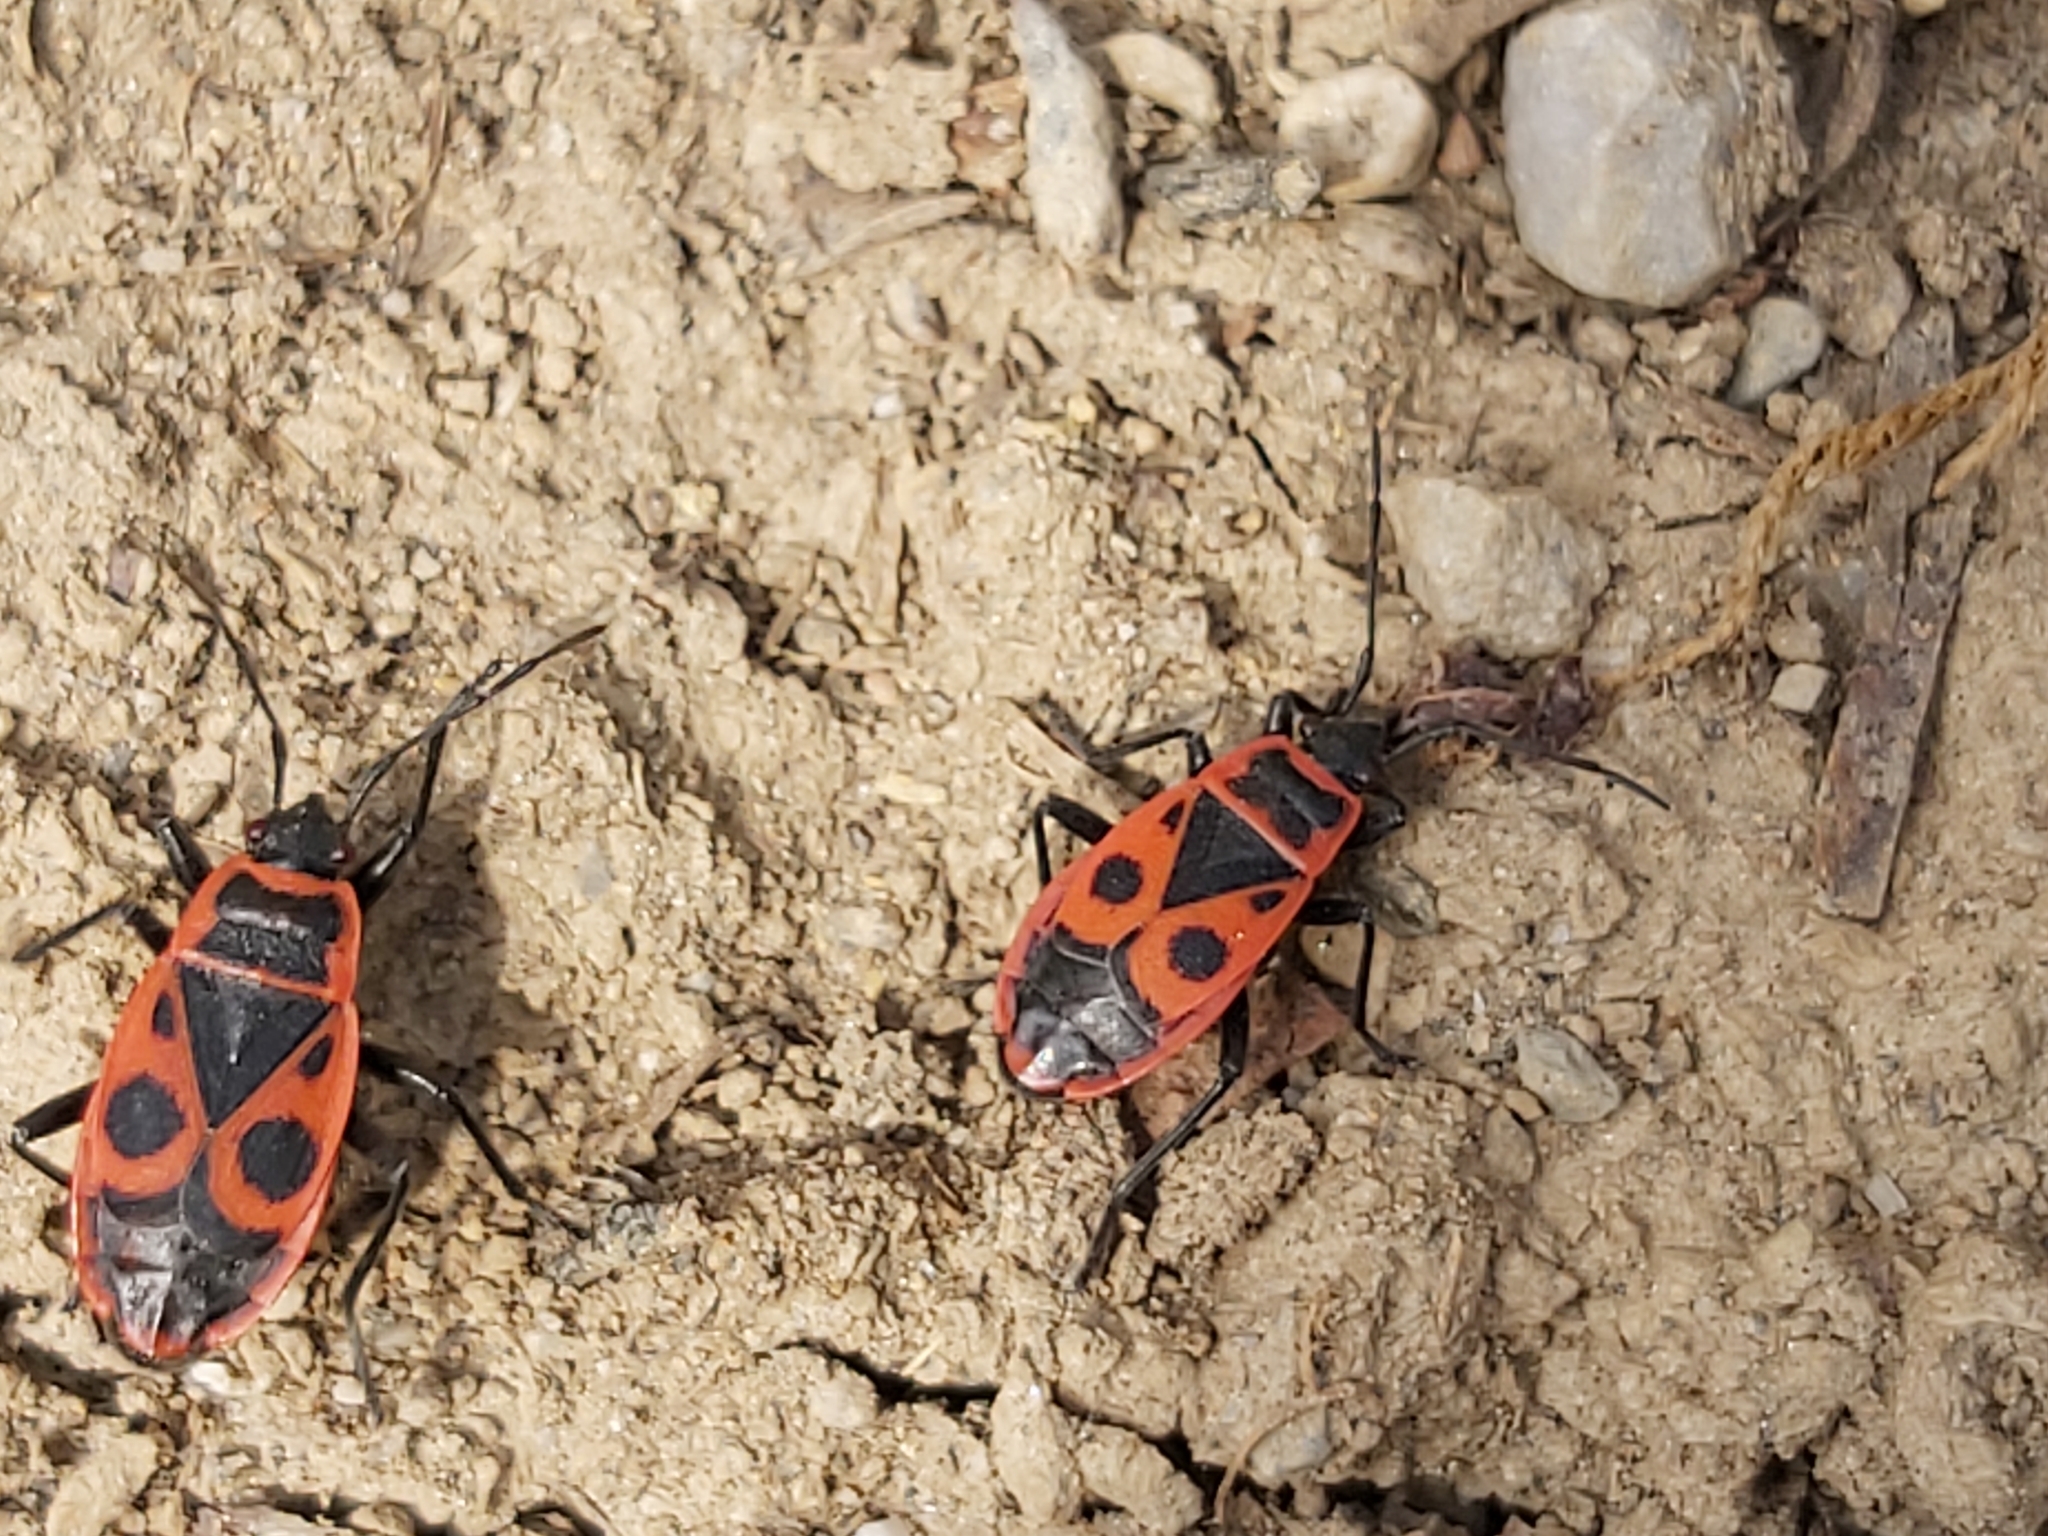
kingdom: Animalia
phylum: Arthropoda
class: Insecta
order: Hemiptera
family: Pyrrhocoridae
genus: Pyrrhocoris
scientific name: Pyrrhocoris apterus
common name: Firebug
